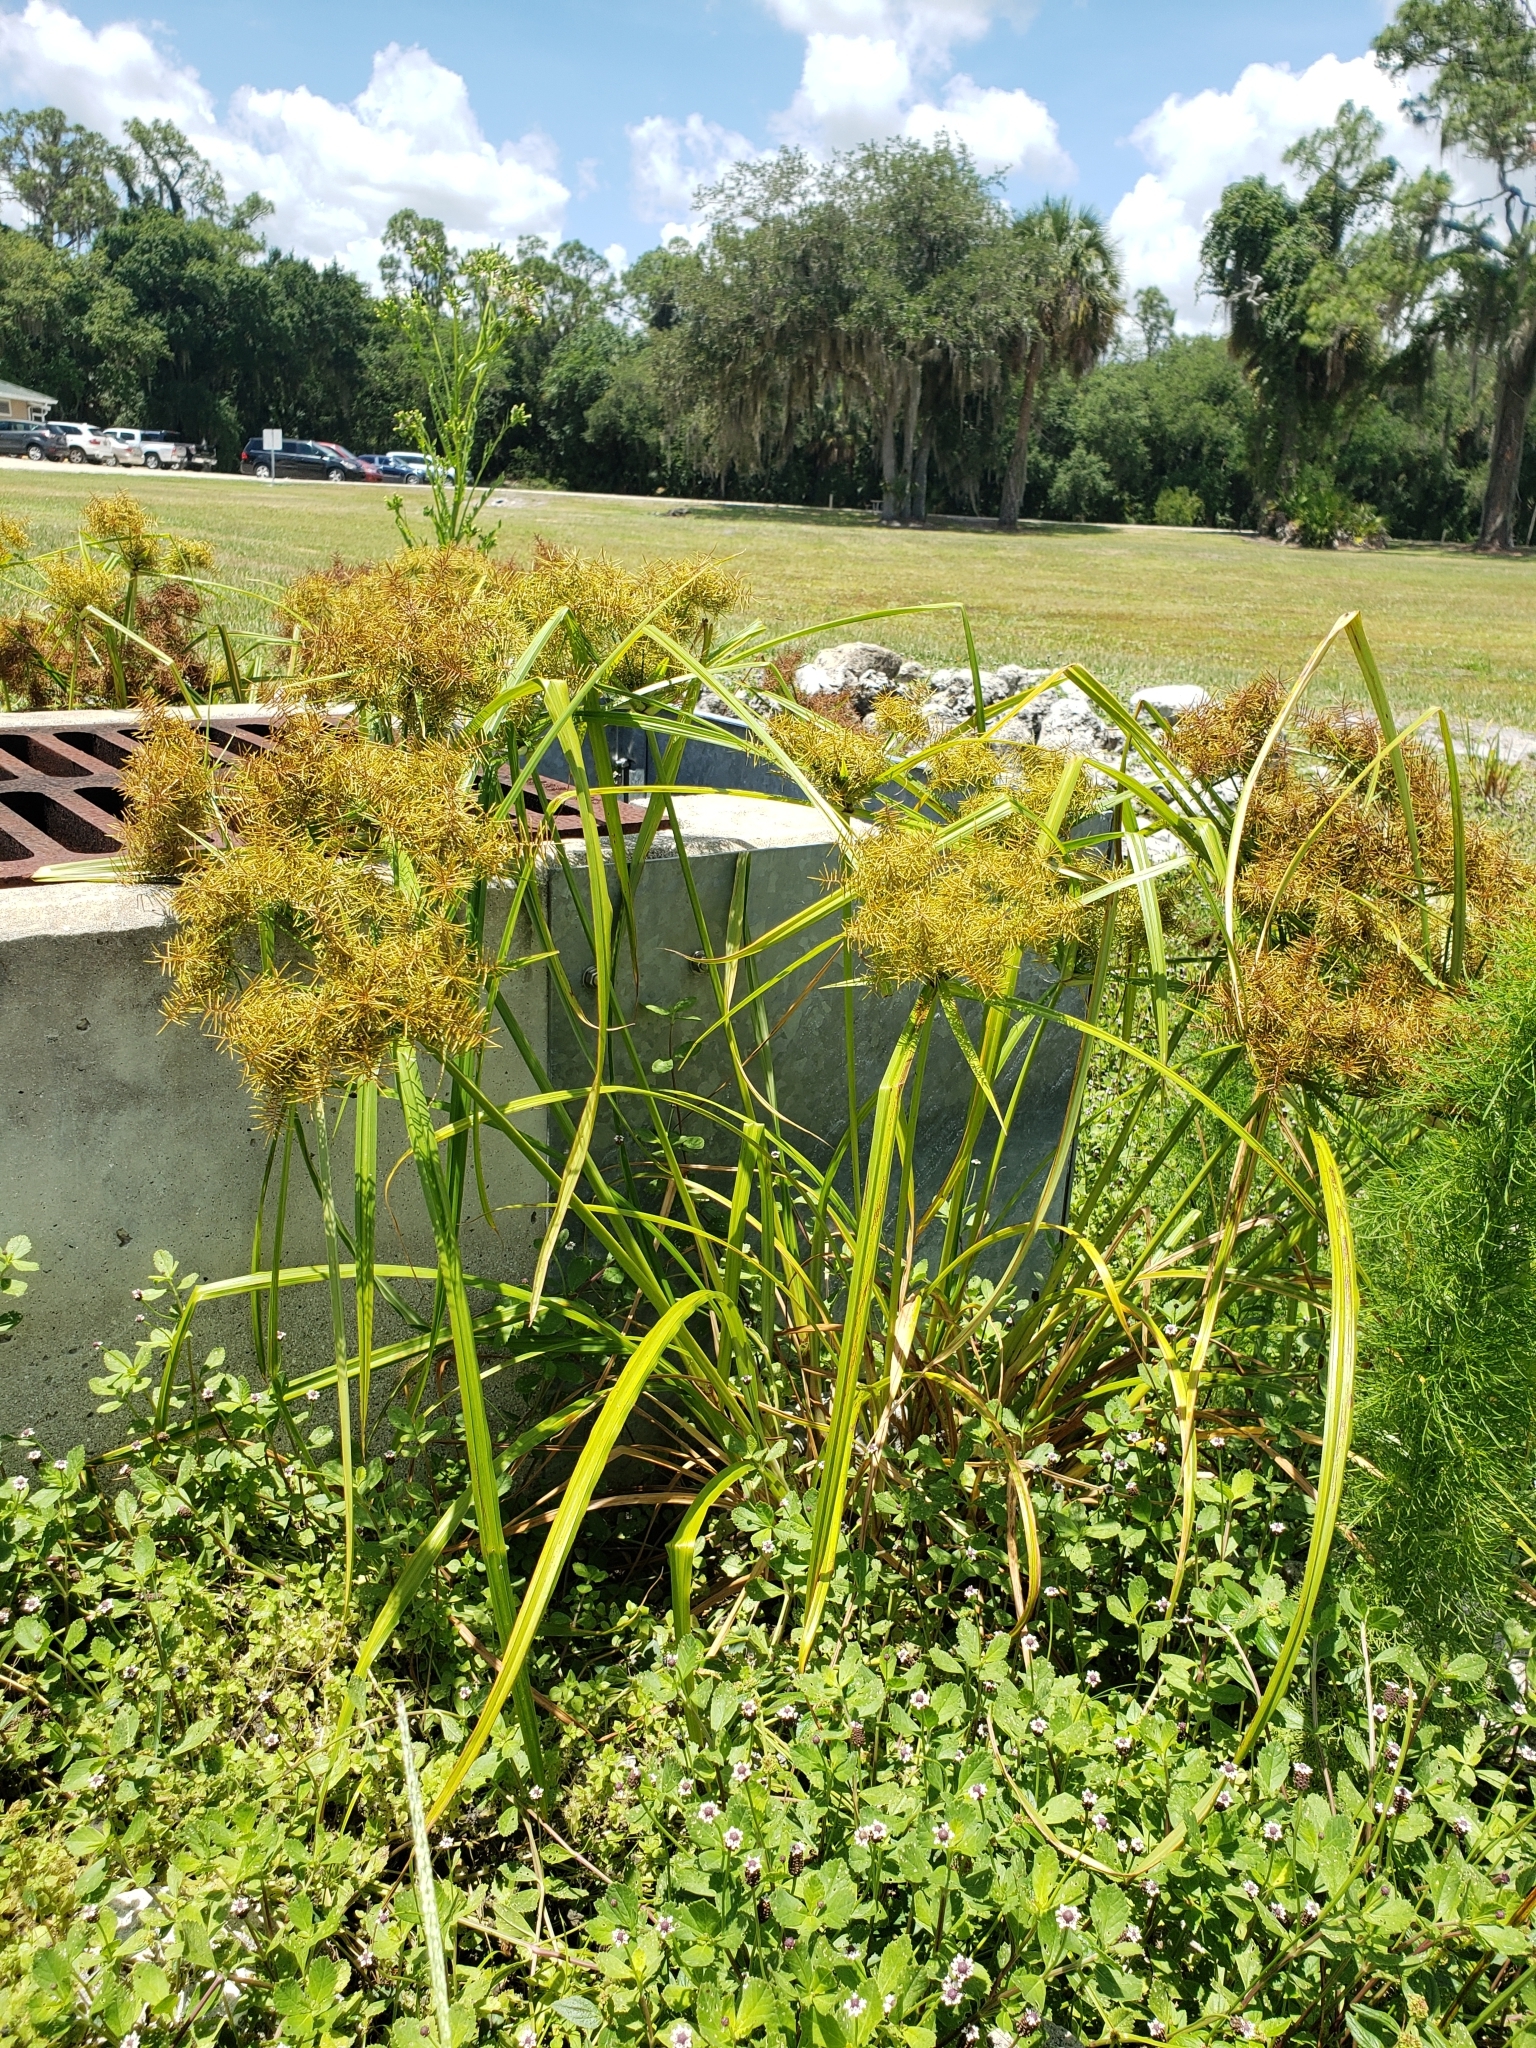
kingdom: Plantae
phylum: Tracheophyta
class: Liliopsida
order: Poales
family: Cyperaceae
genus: Cyperus
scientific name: Cyperus odoratus
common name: Fragrant flatsedge
